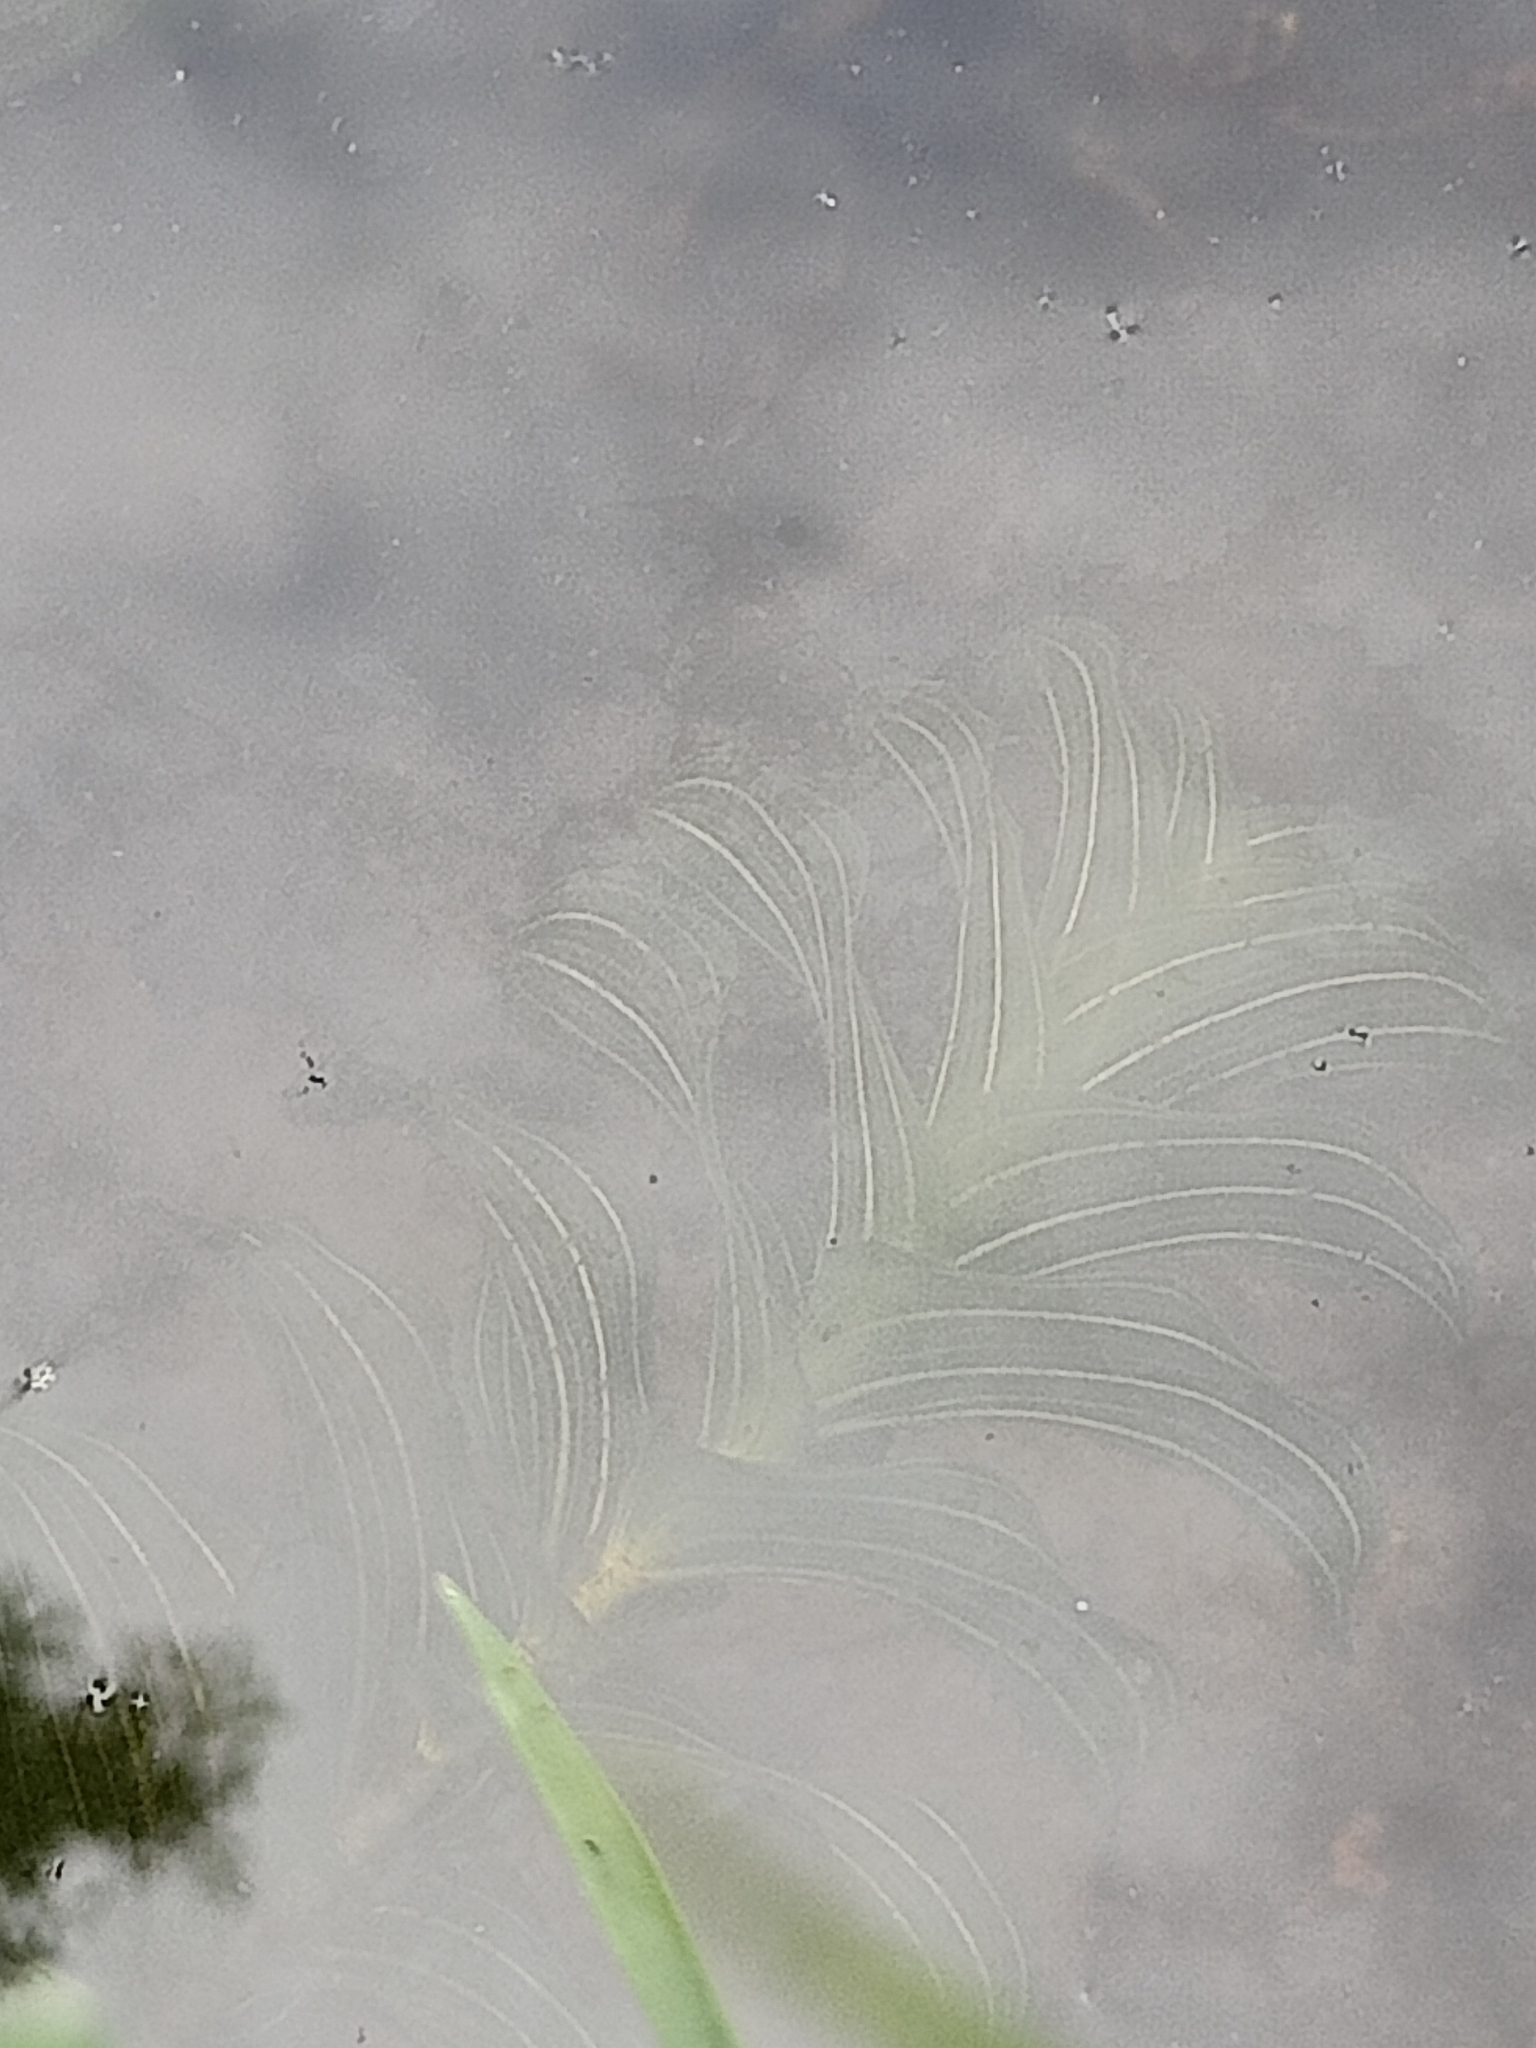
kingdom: Plantae
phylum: Tracheophyta
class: Liliopsida
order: Alismatales
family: Potamogetonaceae
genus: Potamogeton
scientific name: Potamogeton perfoliatus
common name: Perfoliate pondweed
